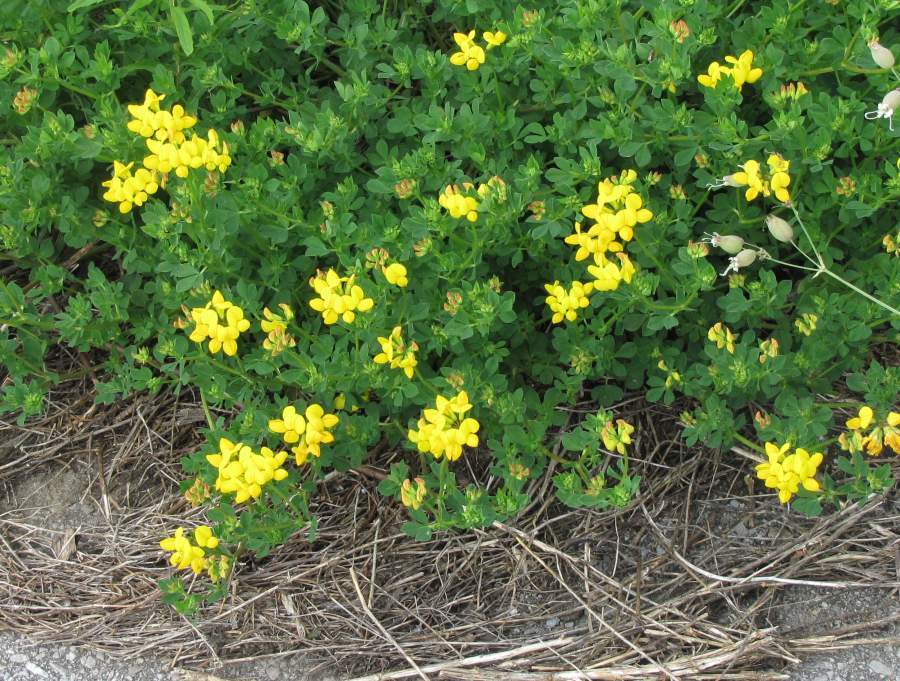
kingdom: Plantae
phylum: Tracheophyta
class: Magnoliopsida
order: Fabales
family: Fabaceae
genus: Lotus
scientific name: Lotus corniculatus
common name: Common bird's-foot-trefoil
